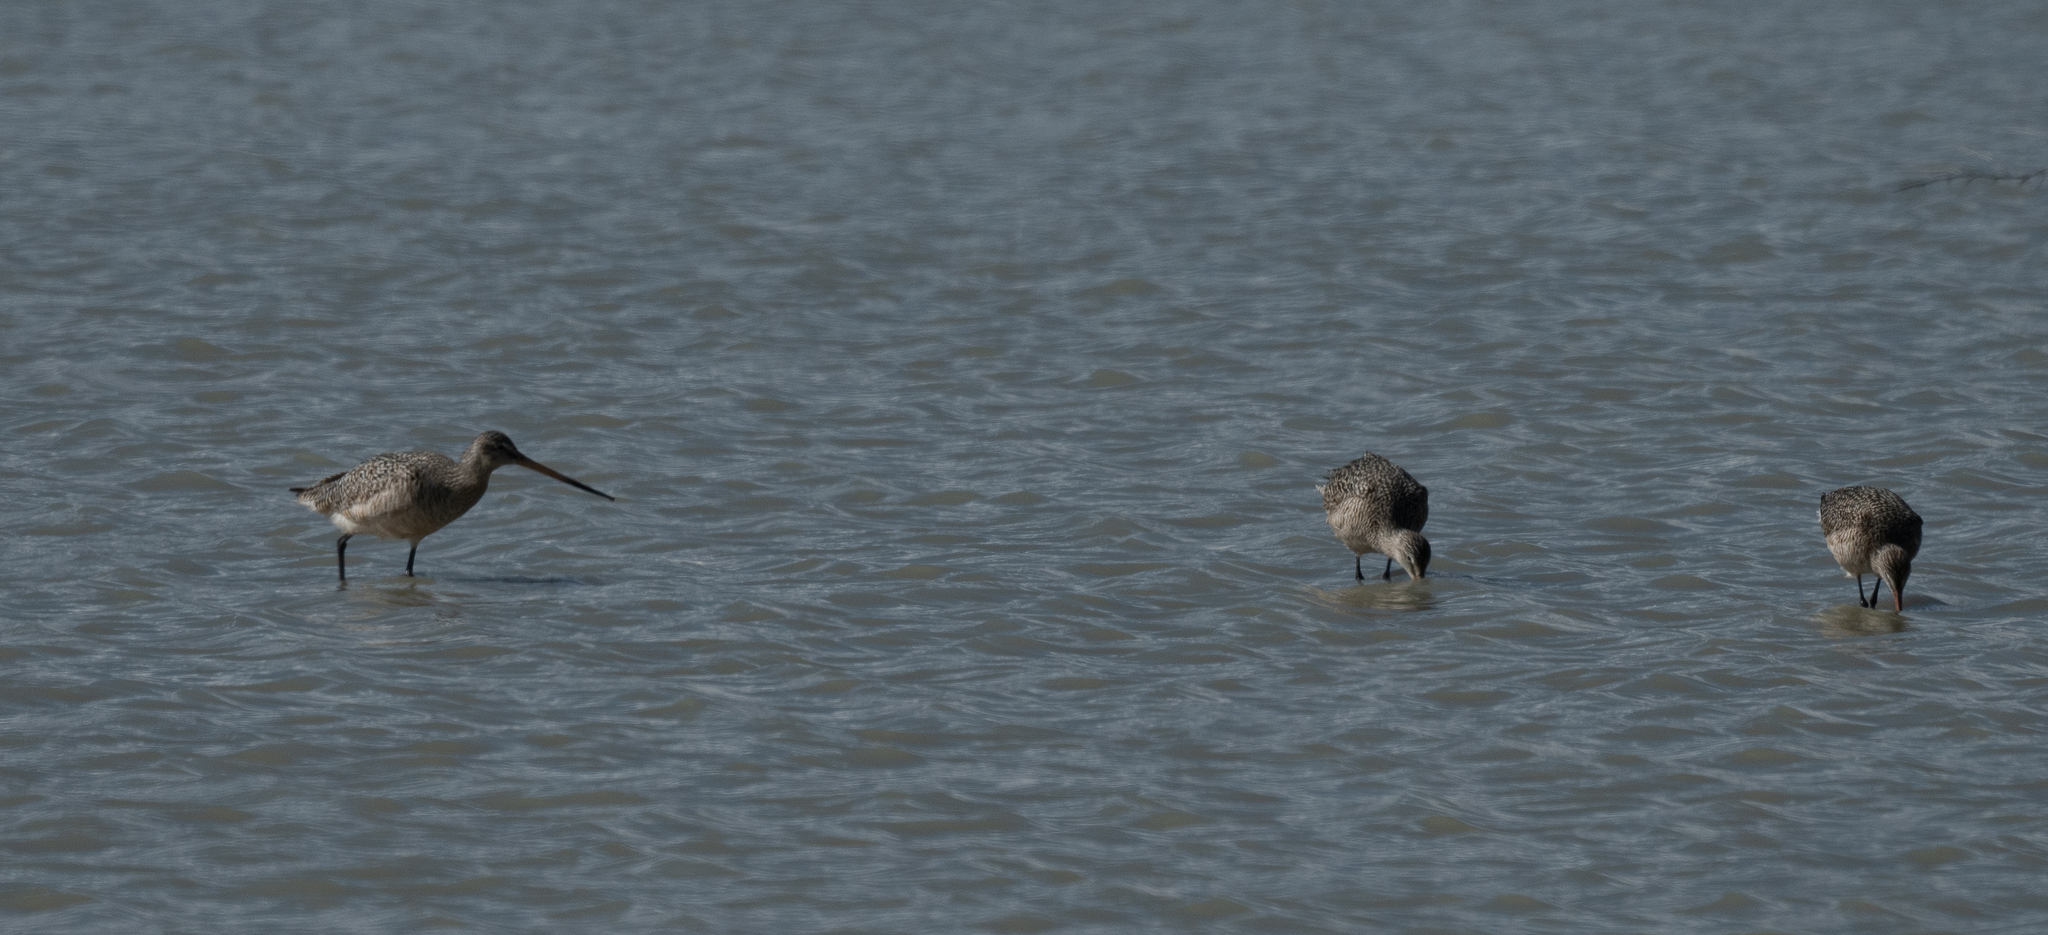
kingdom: Animalia
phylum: Chordata
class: Aves
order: Charadriiformes
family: Scolopacidae
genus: Limosa
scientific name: Limosa fedoa
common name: Marbled godwit
